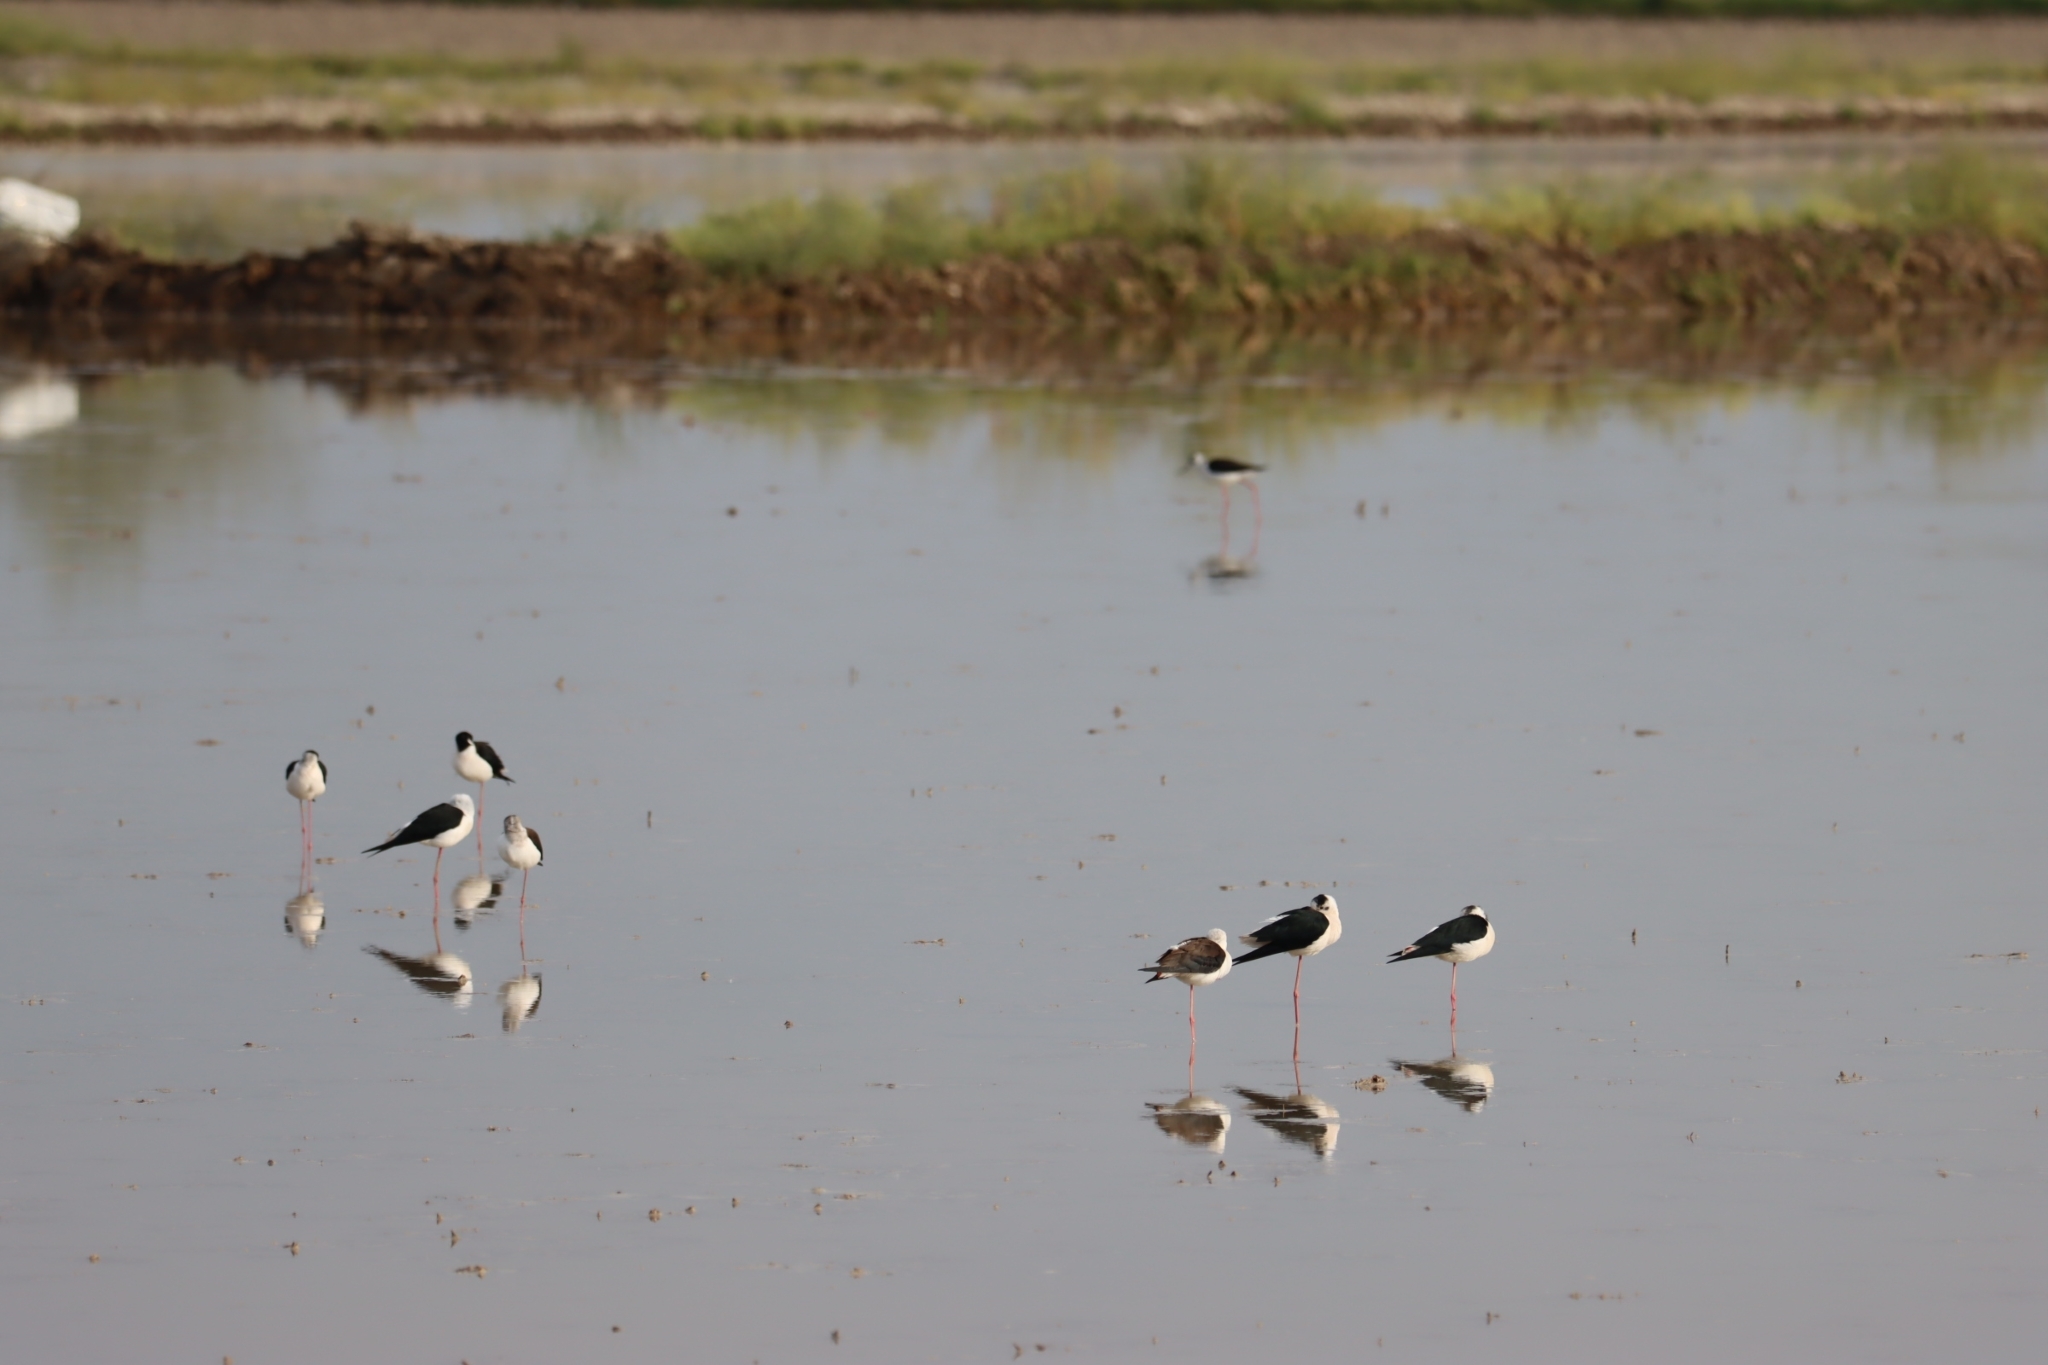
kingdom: Animalia
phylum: Chordata
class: Aves
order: Charadriiformes
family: Recurvirostridae
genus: Himantopus
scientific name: Himantopus himantopus
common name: Black-winged stilt
